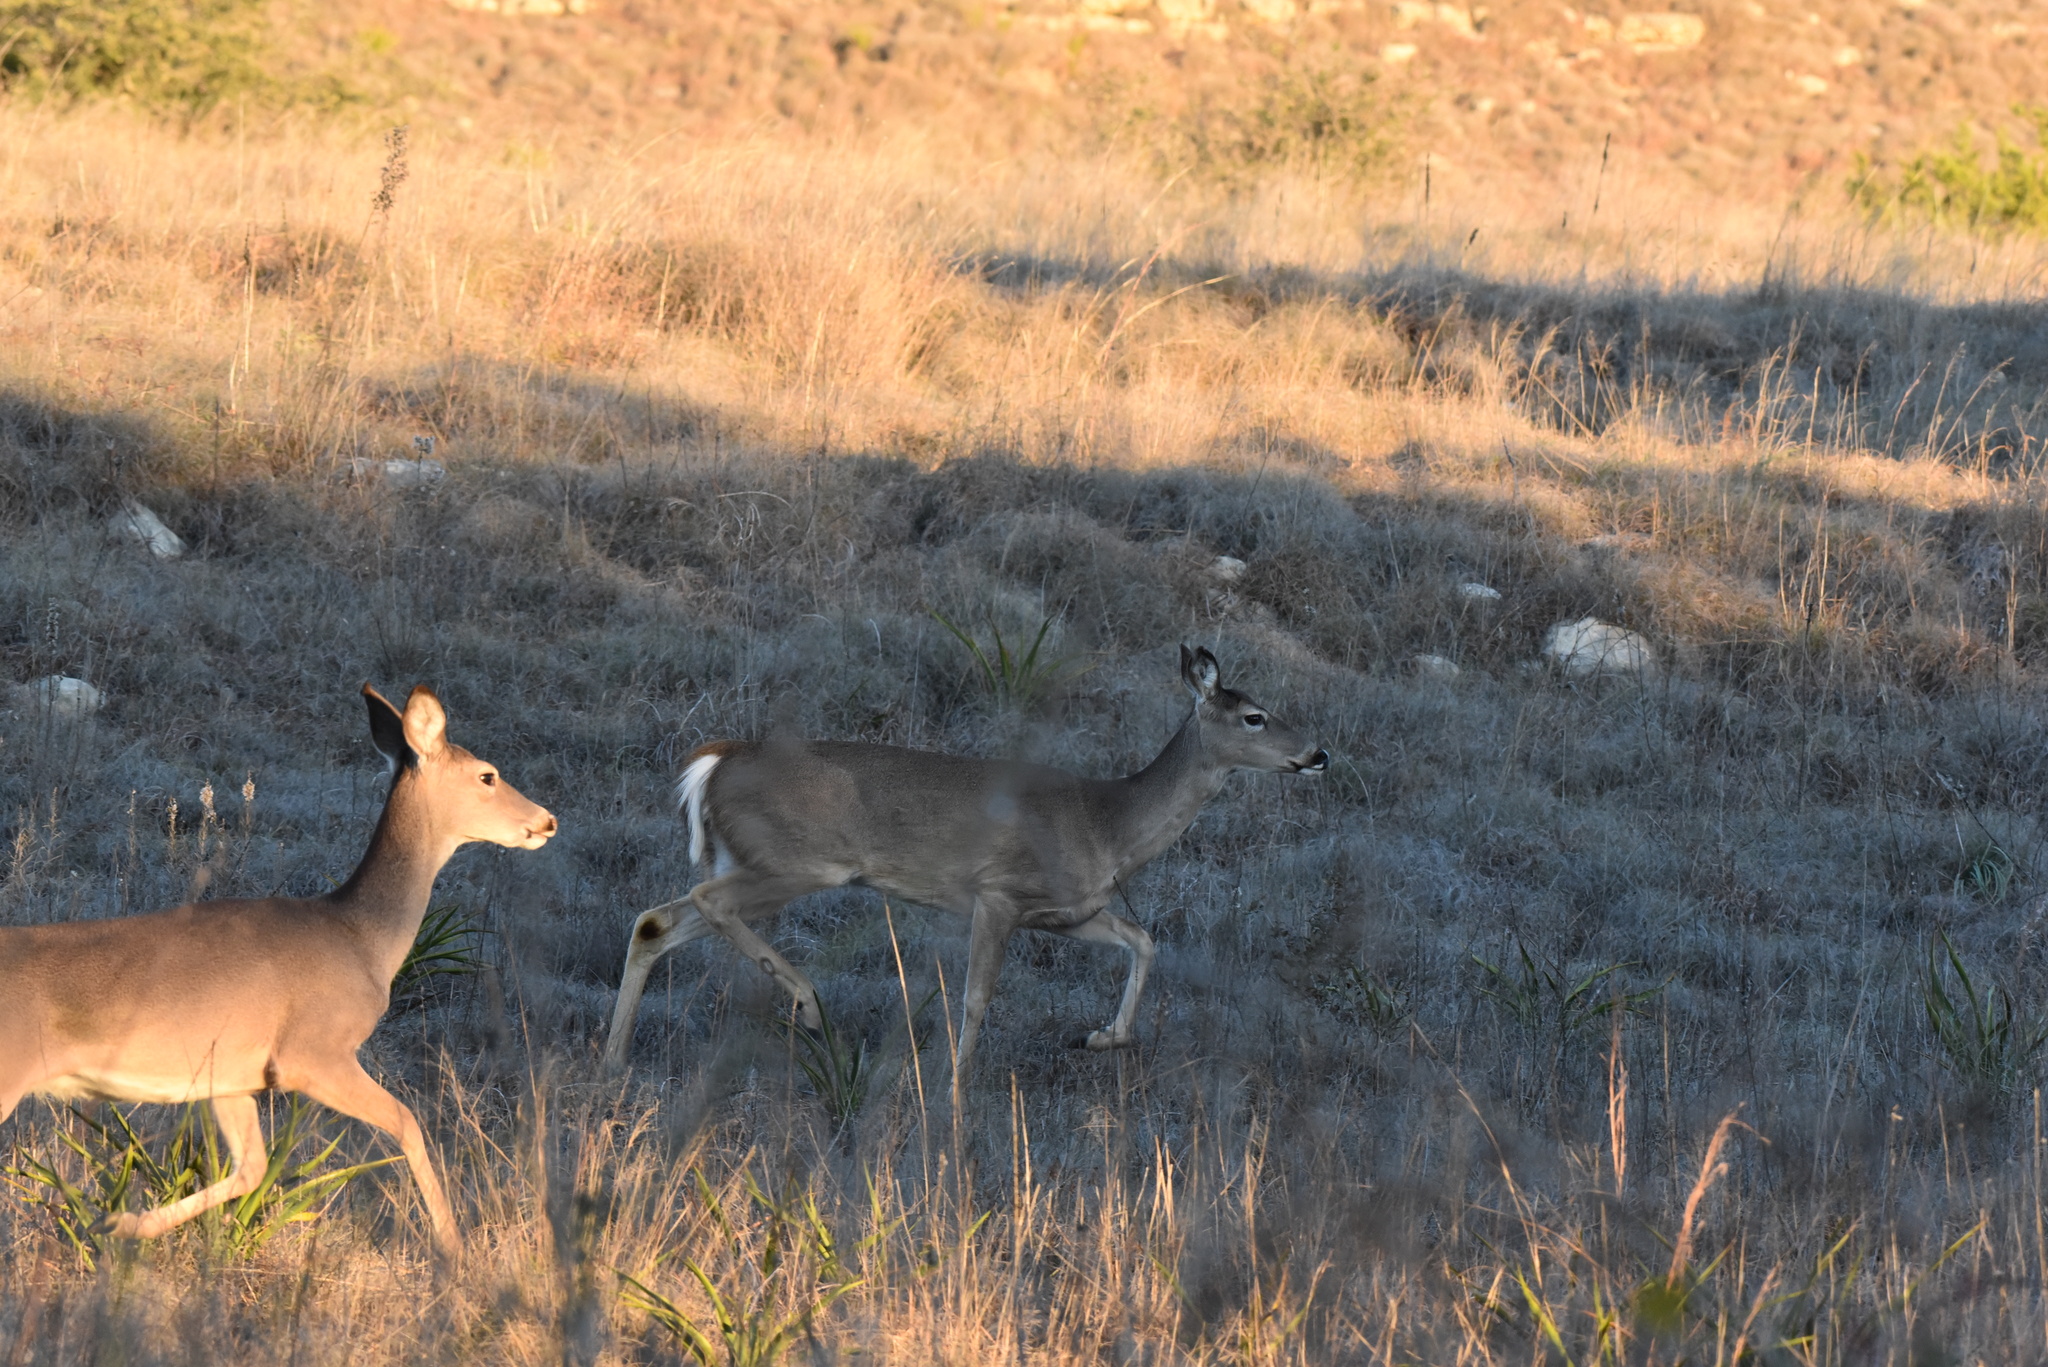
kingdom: Animalia
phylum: Chordata
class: Mammalia
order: Artiodactyla
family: Cervidae
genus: Odocoileus
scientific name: Odocoileus virginianus
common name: White-tailed deer
